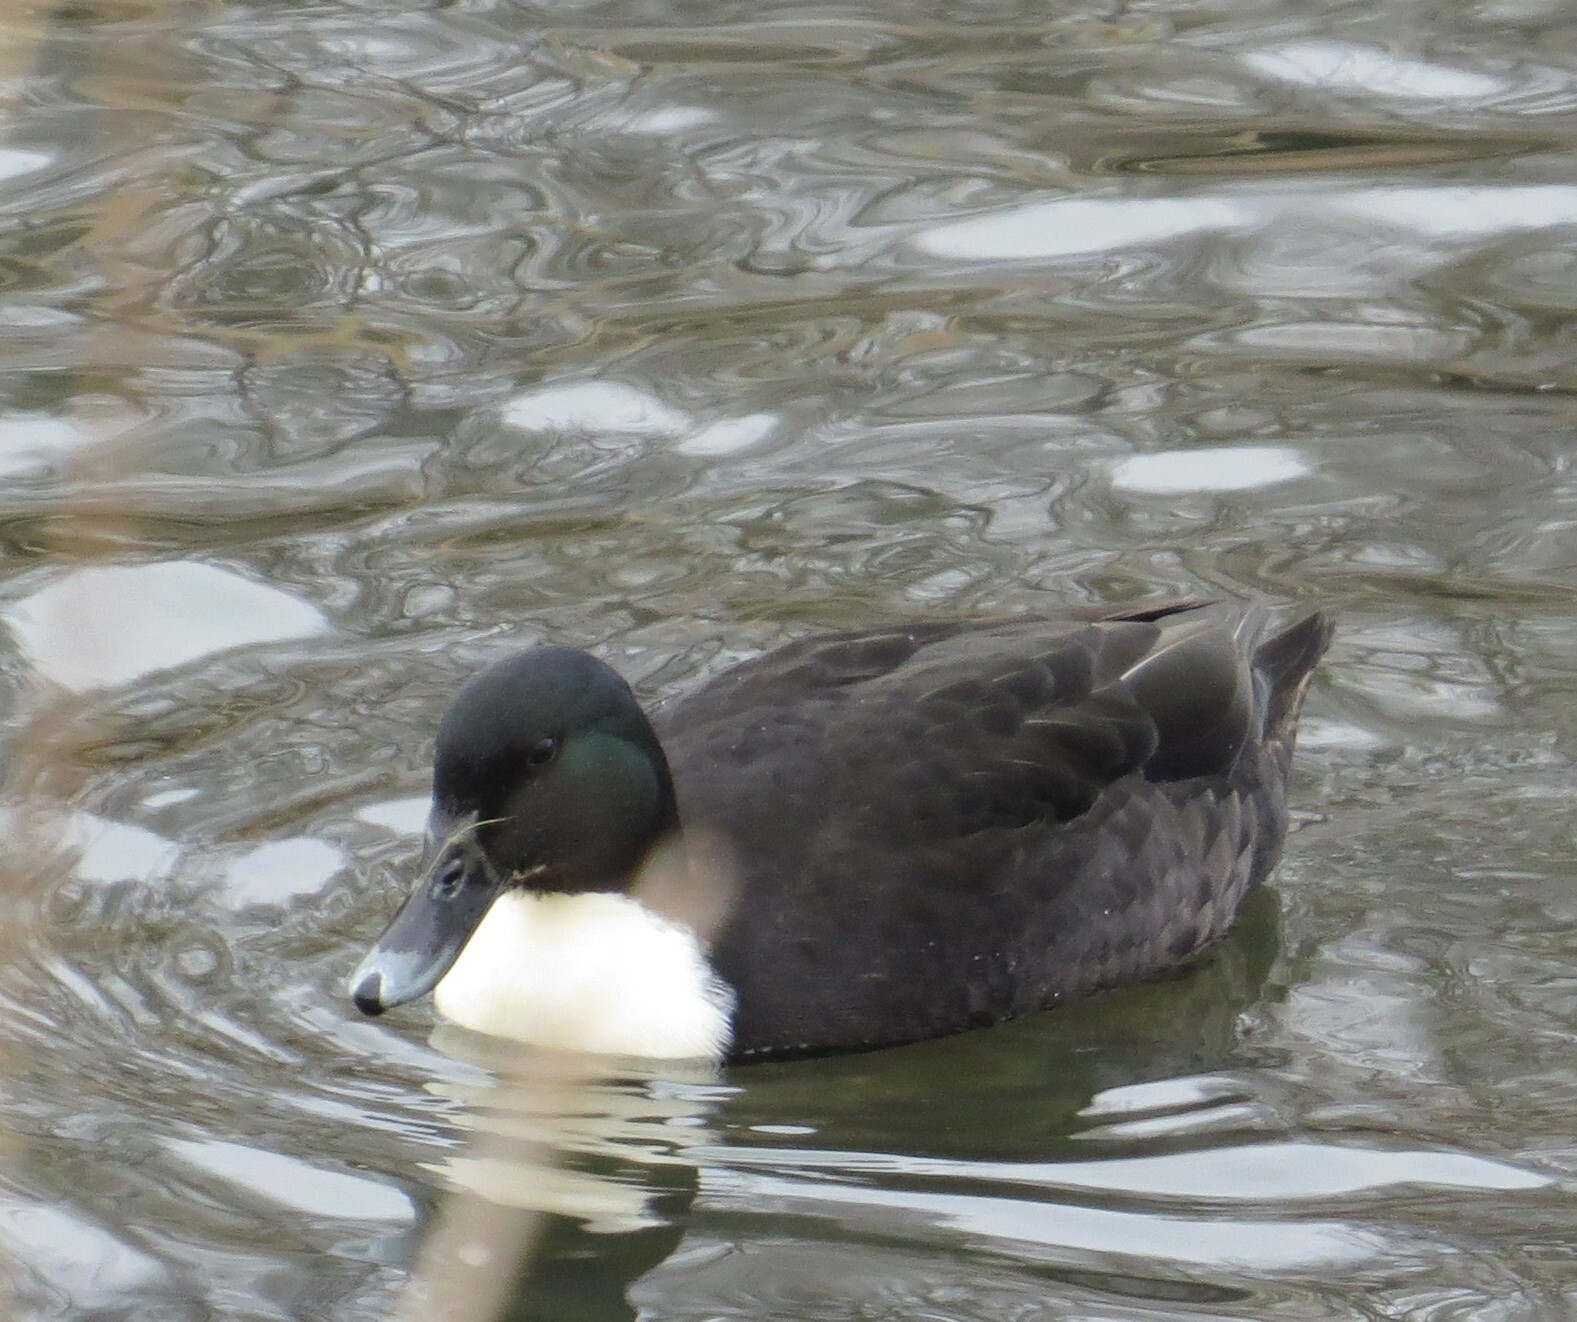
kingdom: Animalia
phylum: Chordata
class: Aves
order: Anseriformes
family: Anatidae
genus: Anas
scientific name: Anas platyrhynchos
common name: Mallard
